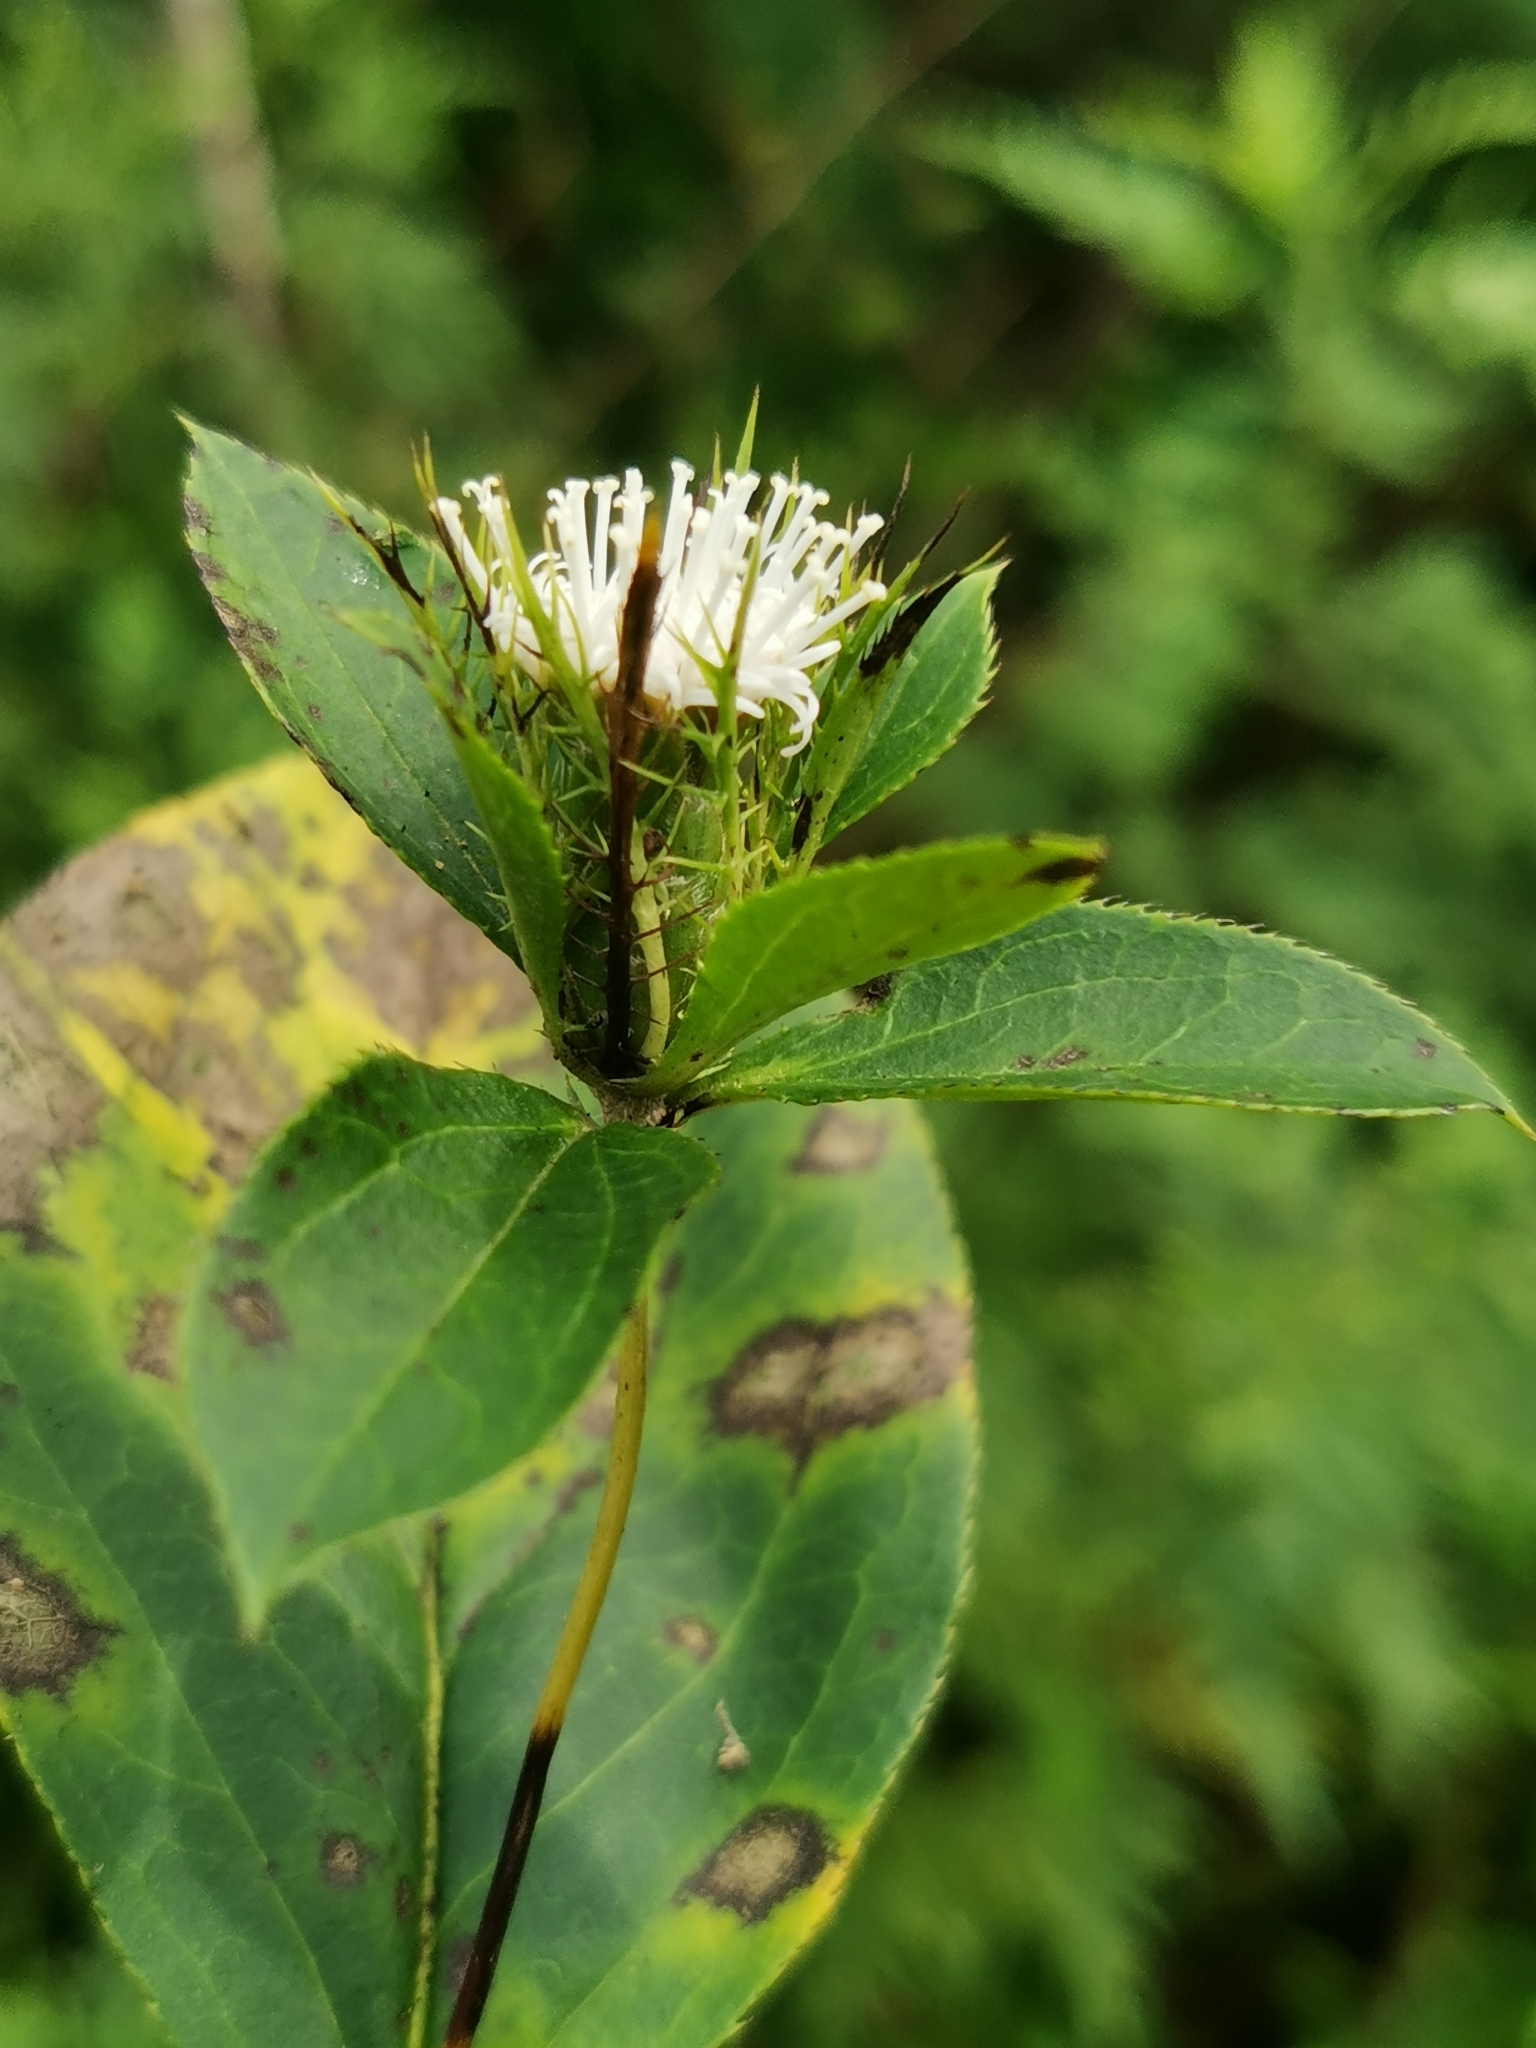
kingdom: Plantae
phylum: Tracheophyta
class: Magnoliopsida
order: Asterales
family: Asteraceae
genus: Atractylodes
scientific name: Atractylodes lancea
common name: Southern tsangshu
